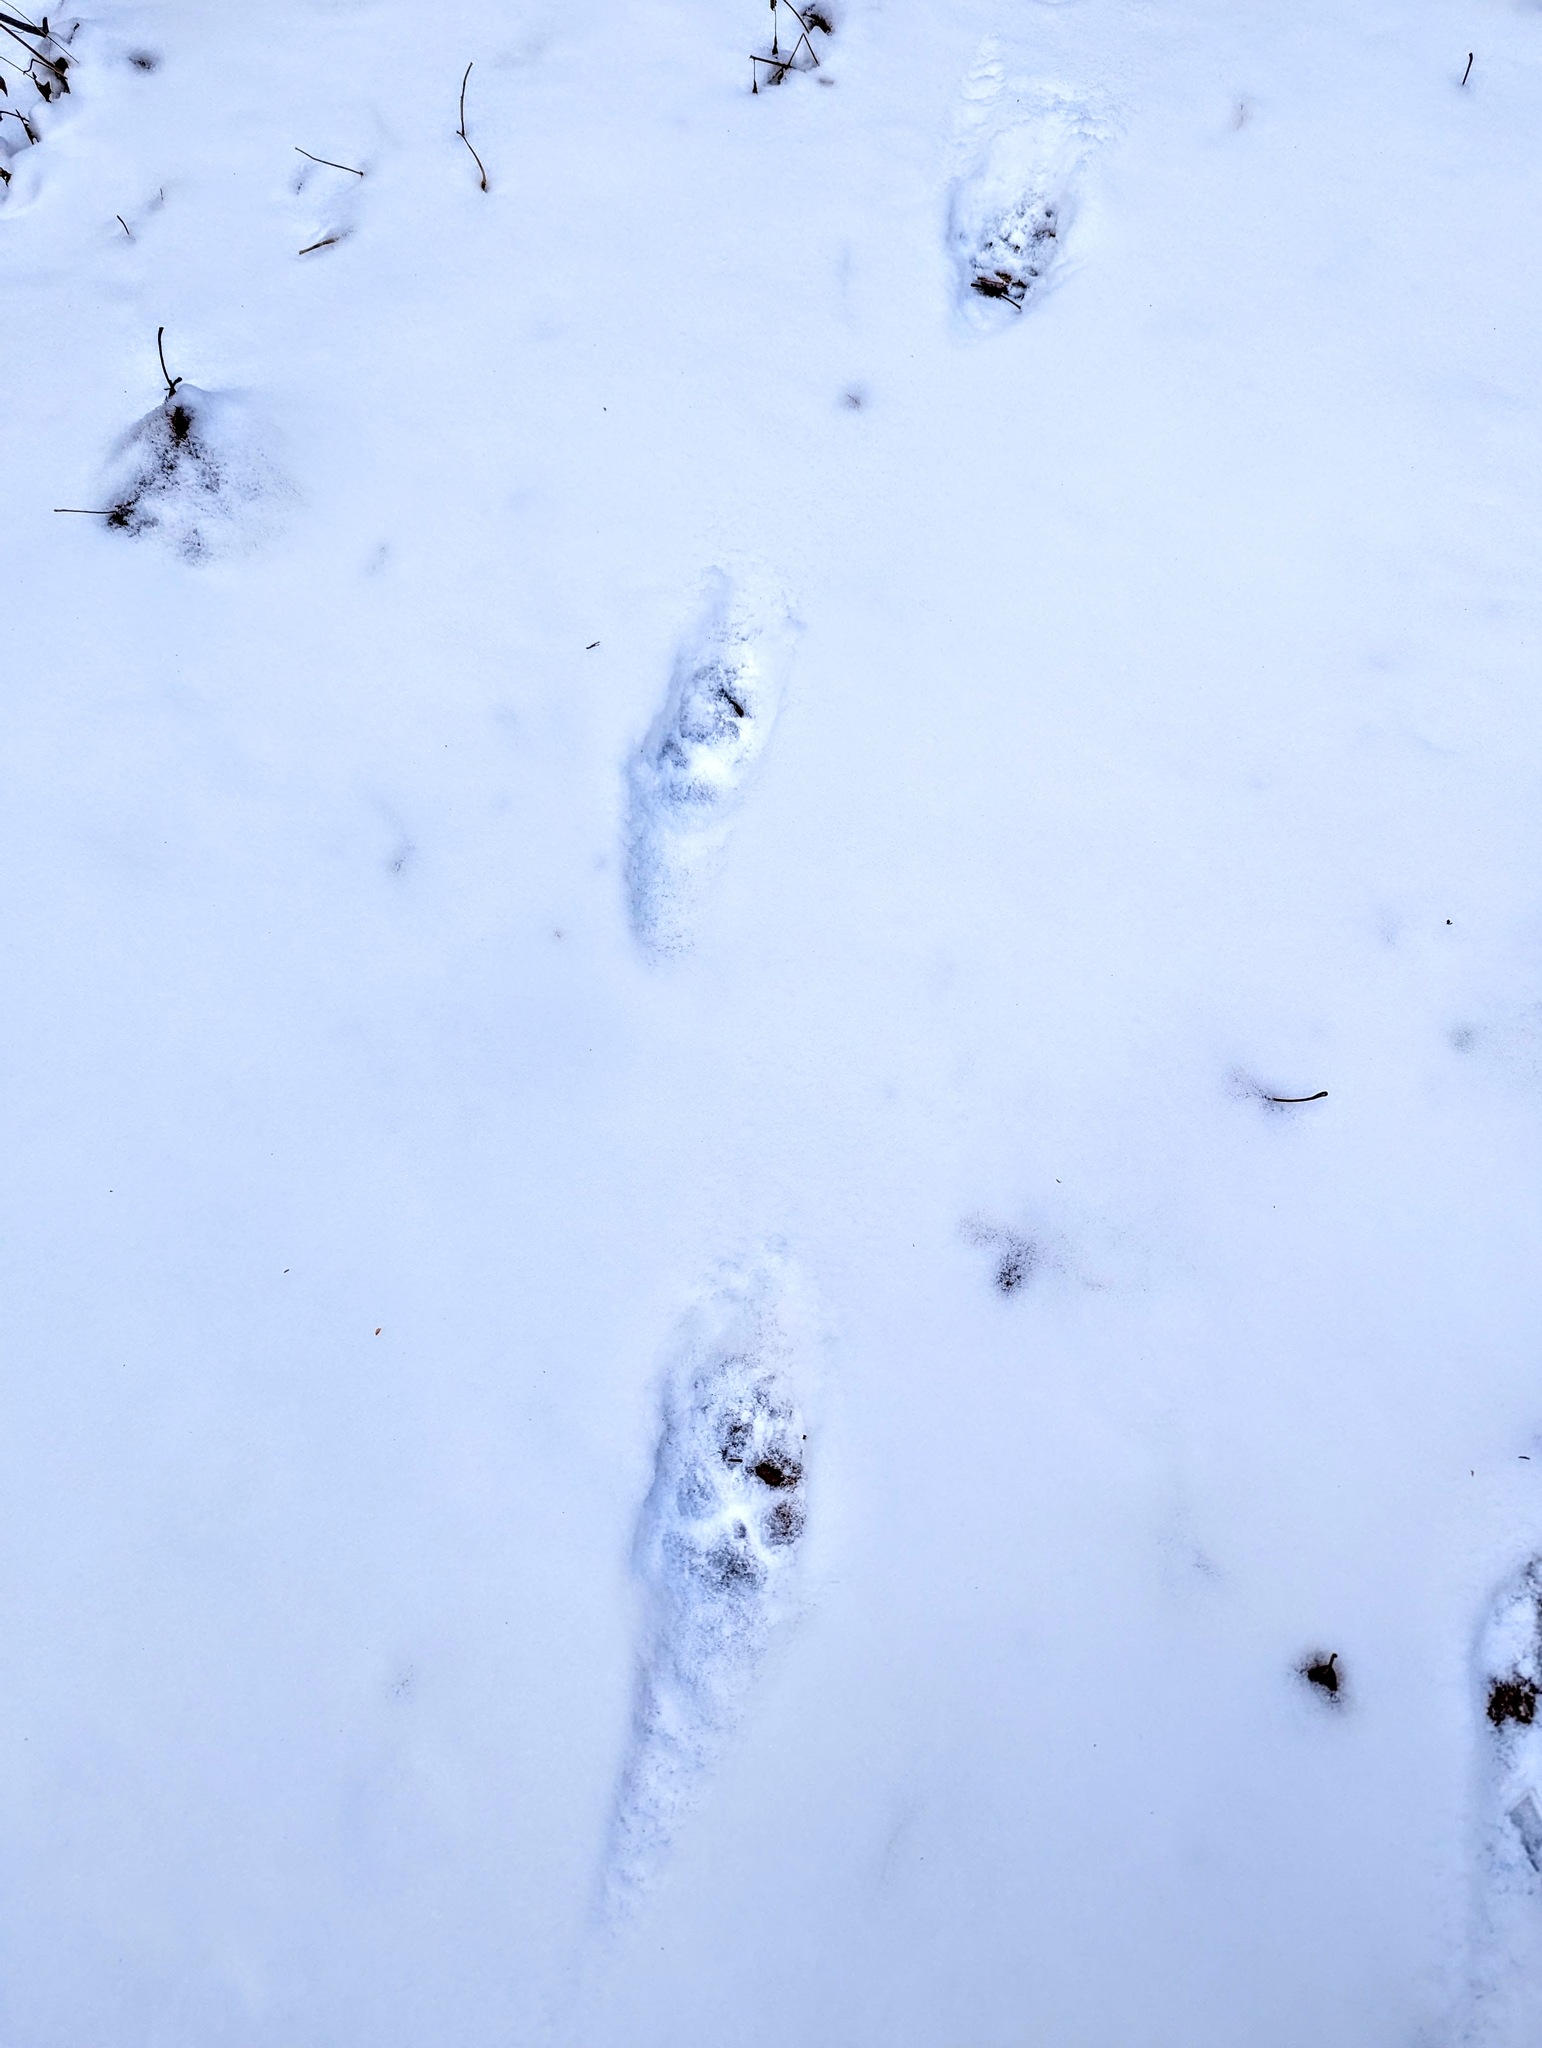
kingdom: Animalia
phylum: Chordata
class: Mammalia
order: Carnivora
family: Canidae
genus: Canis
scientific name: Canis latrans
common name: Coyote
